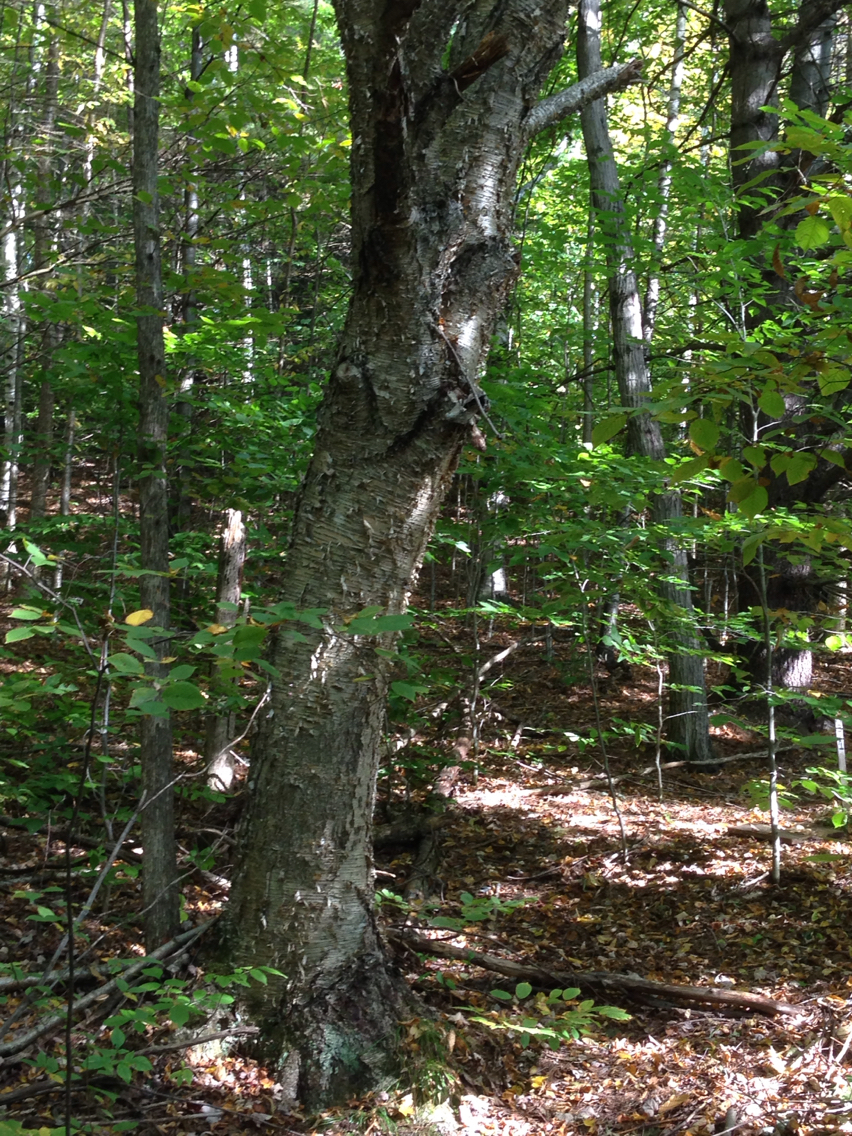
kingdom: Plantae
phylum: Tracheophyta
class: Magnoliopsida
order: Fagales
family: Betulaceae
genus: Betula
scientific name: Betula alleghaniensis
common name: Yellow birch
